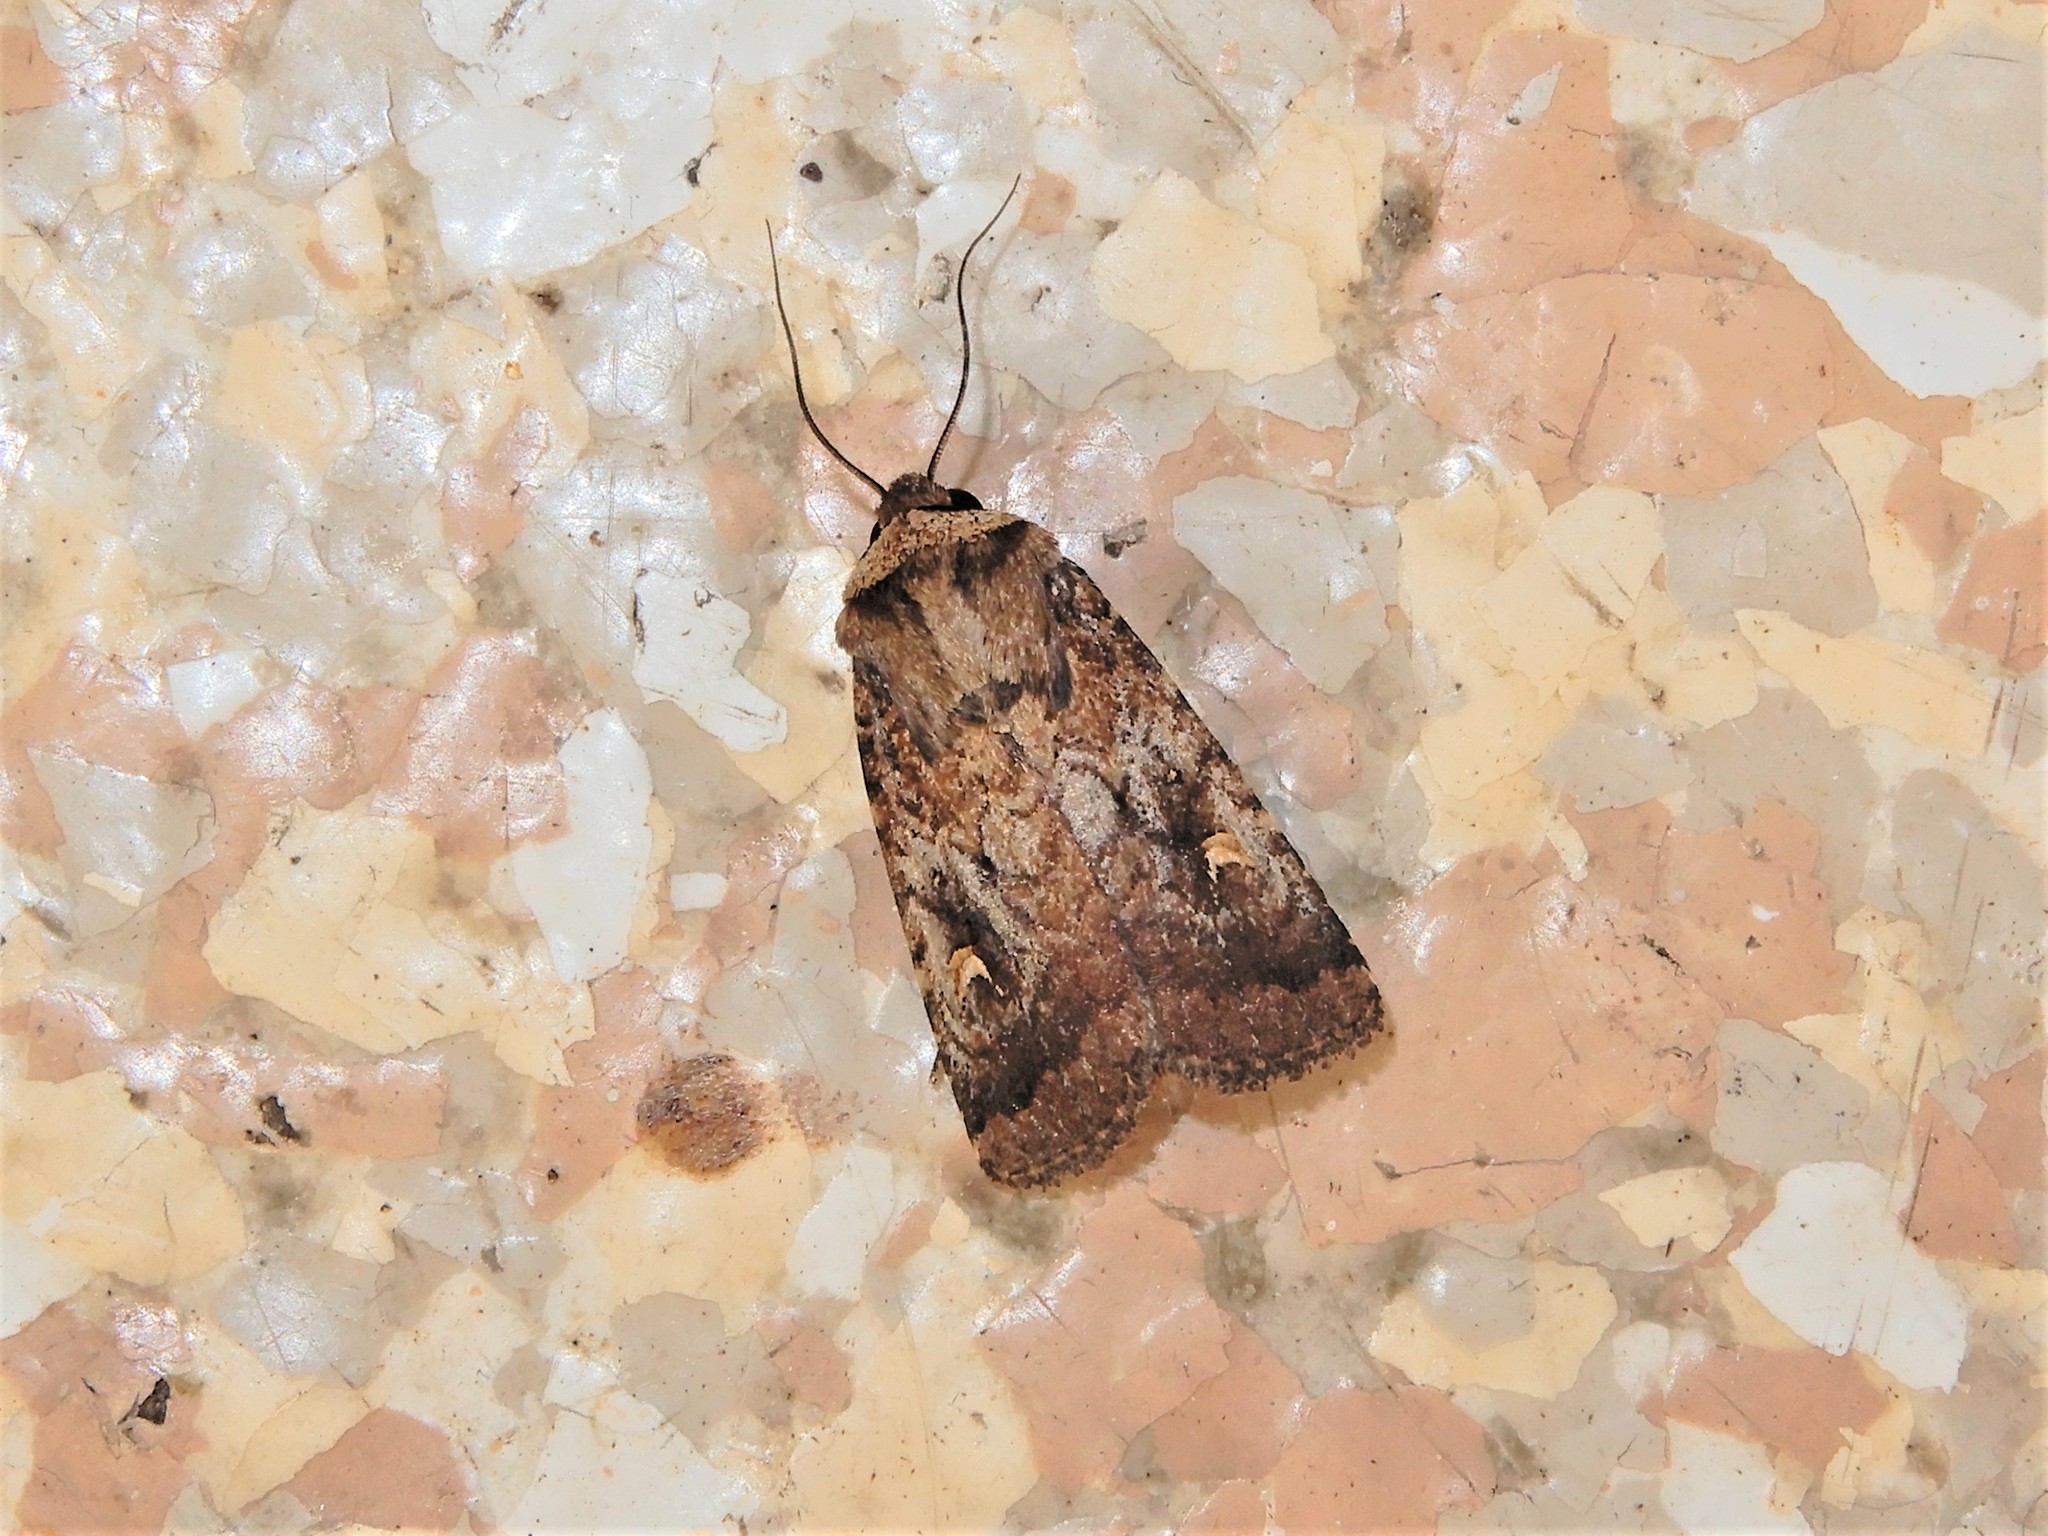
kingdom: Animalia
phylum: Arthropoda
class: Insecta
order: Lepidoptera
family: Noctuidae
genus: Proteuxoa
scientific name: Proteuxoa tetronycha
